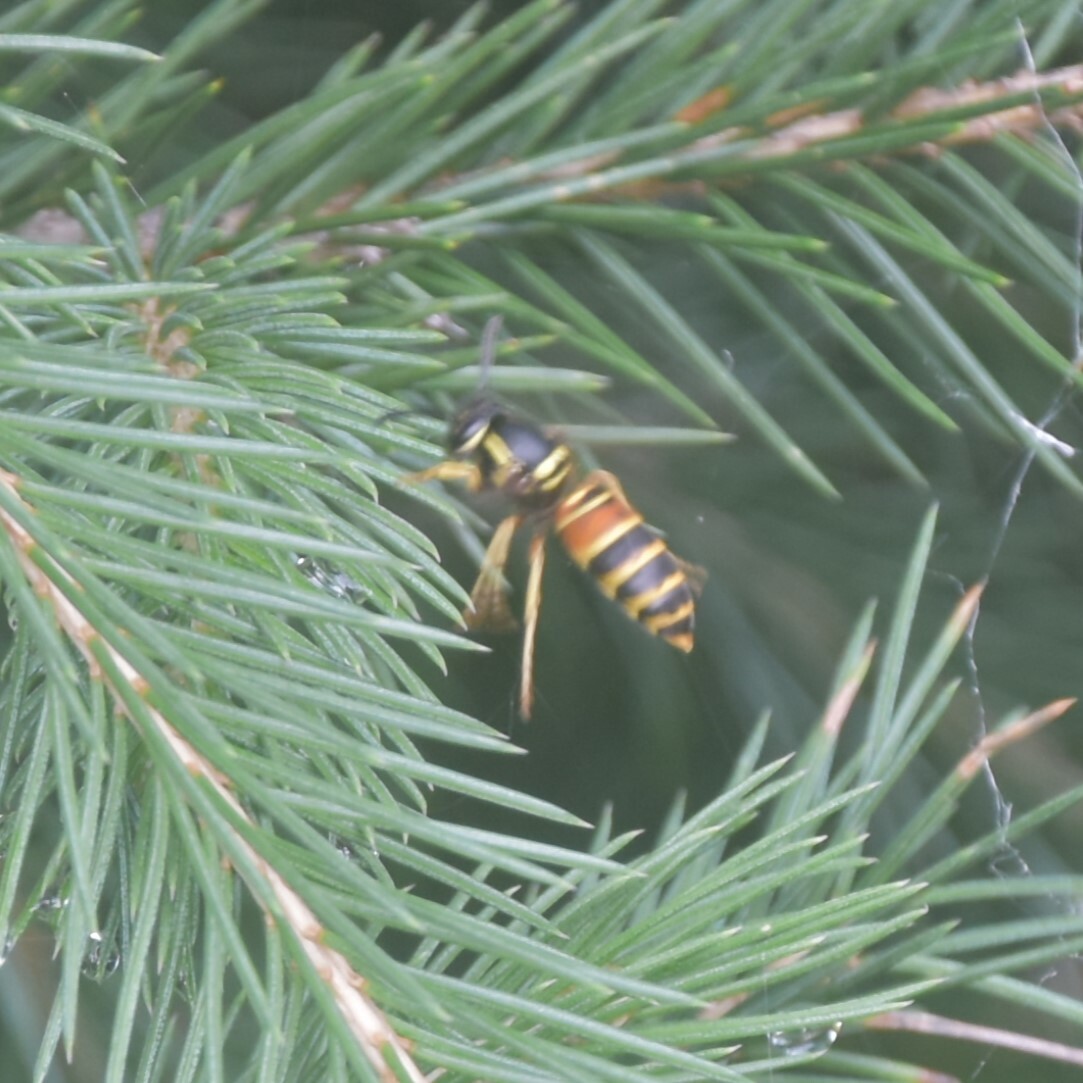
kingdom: Animalia
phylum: Arthropoda
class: Insecta
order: Hymenoptera
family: Vespidae
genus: Vespula
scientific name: Vespula nursei
